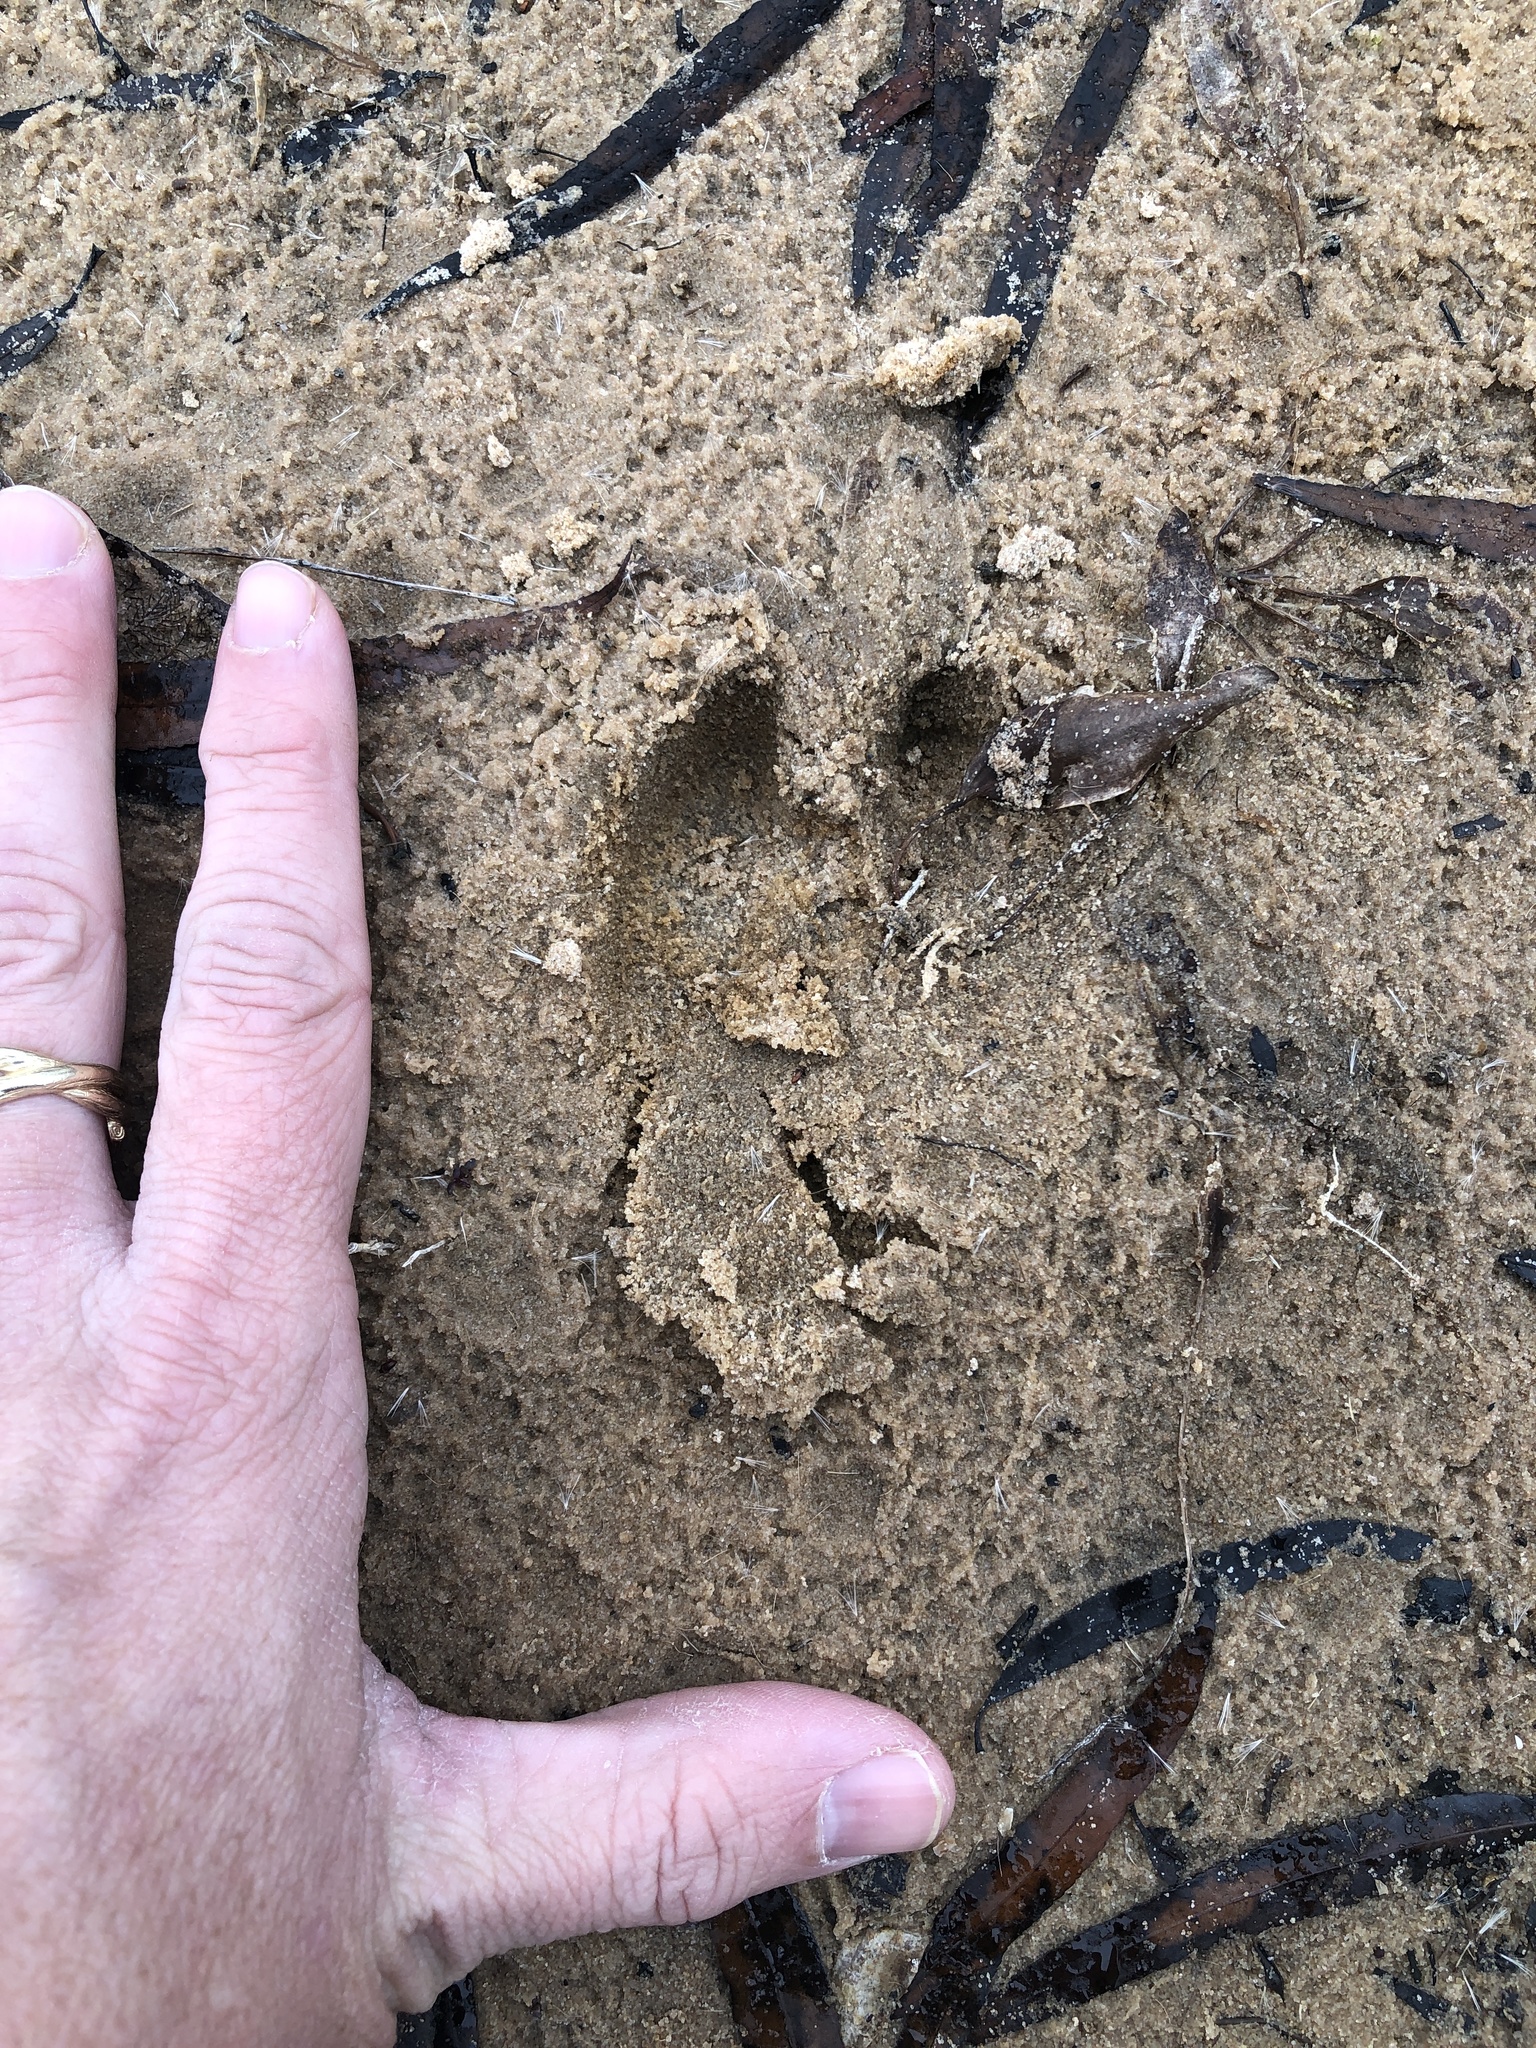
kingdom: Animalia
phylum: Chordata
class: Mammalia
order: Artiodactyla
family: Suidae
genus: Sus
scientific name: Sus scrofa
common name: Wild boar
